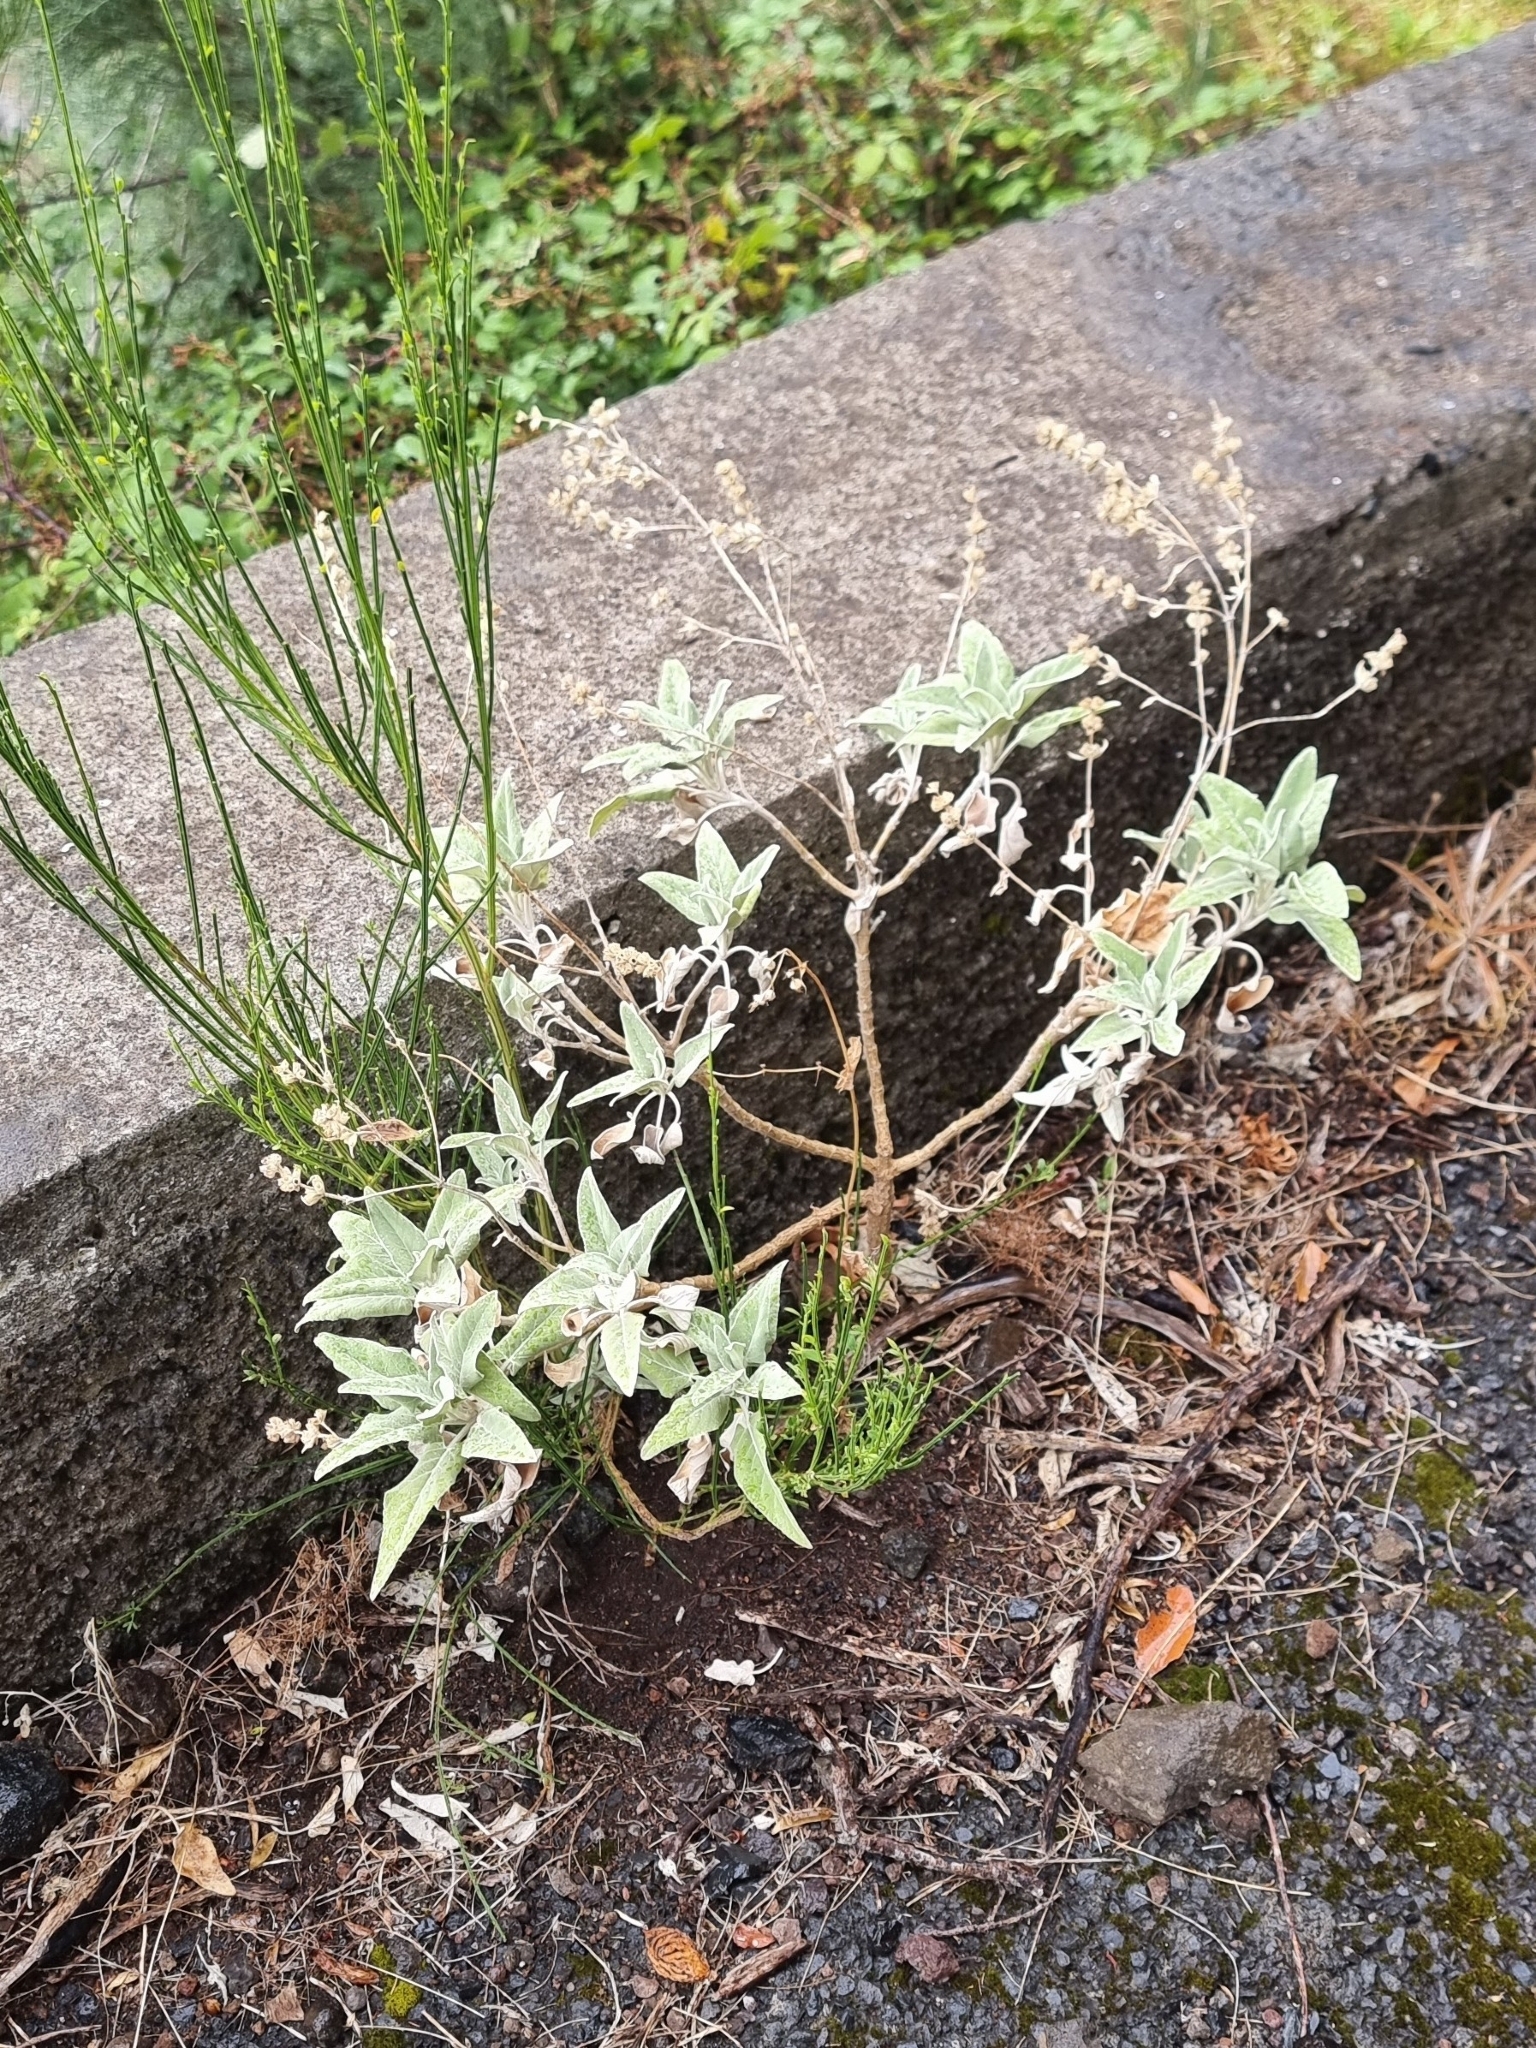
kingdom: Plantae
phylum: Tracheophyta
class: Magnoliopsida
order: Lamiales
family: Lamiaceae
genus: Sideritis
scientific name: Sideritis candicans
